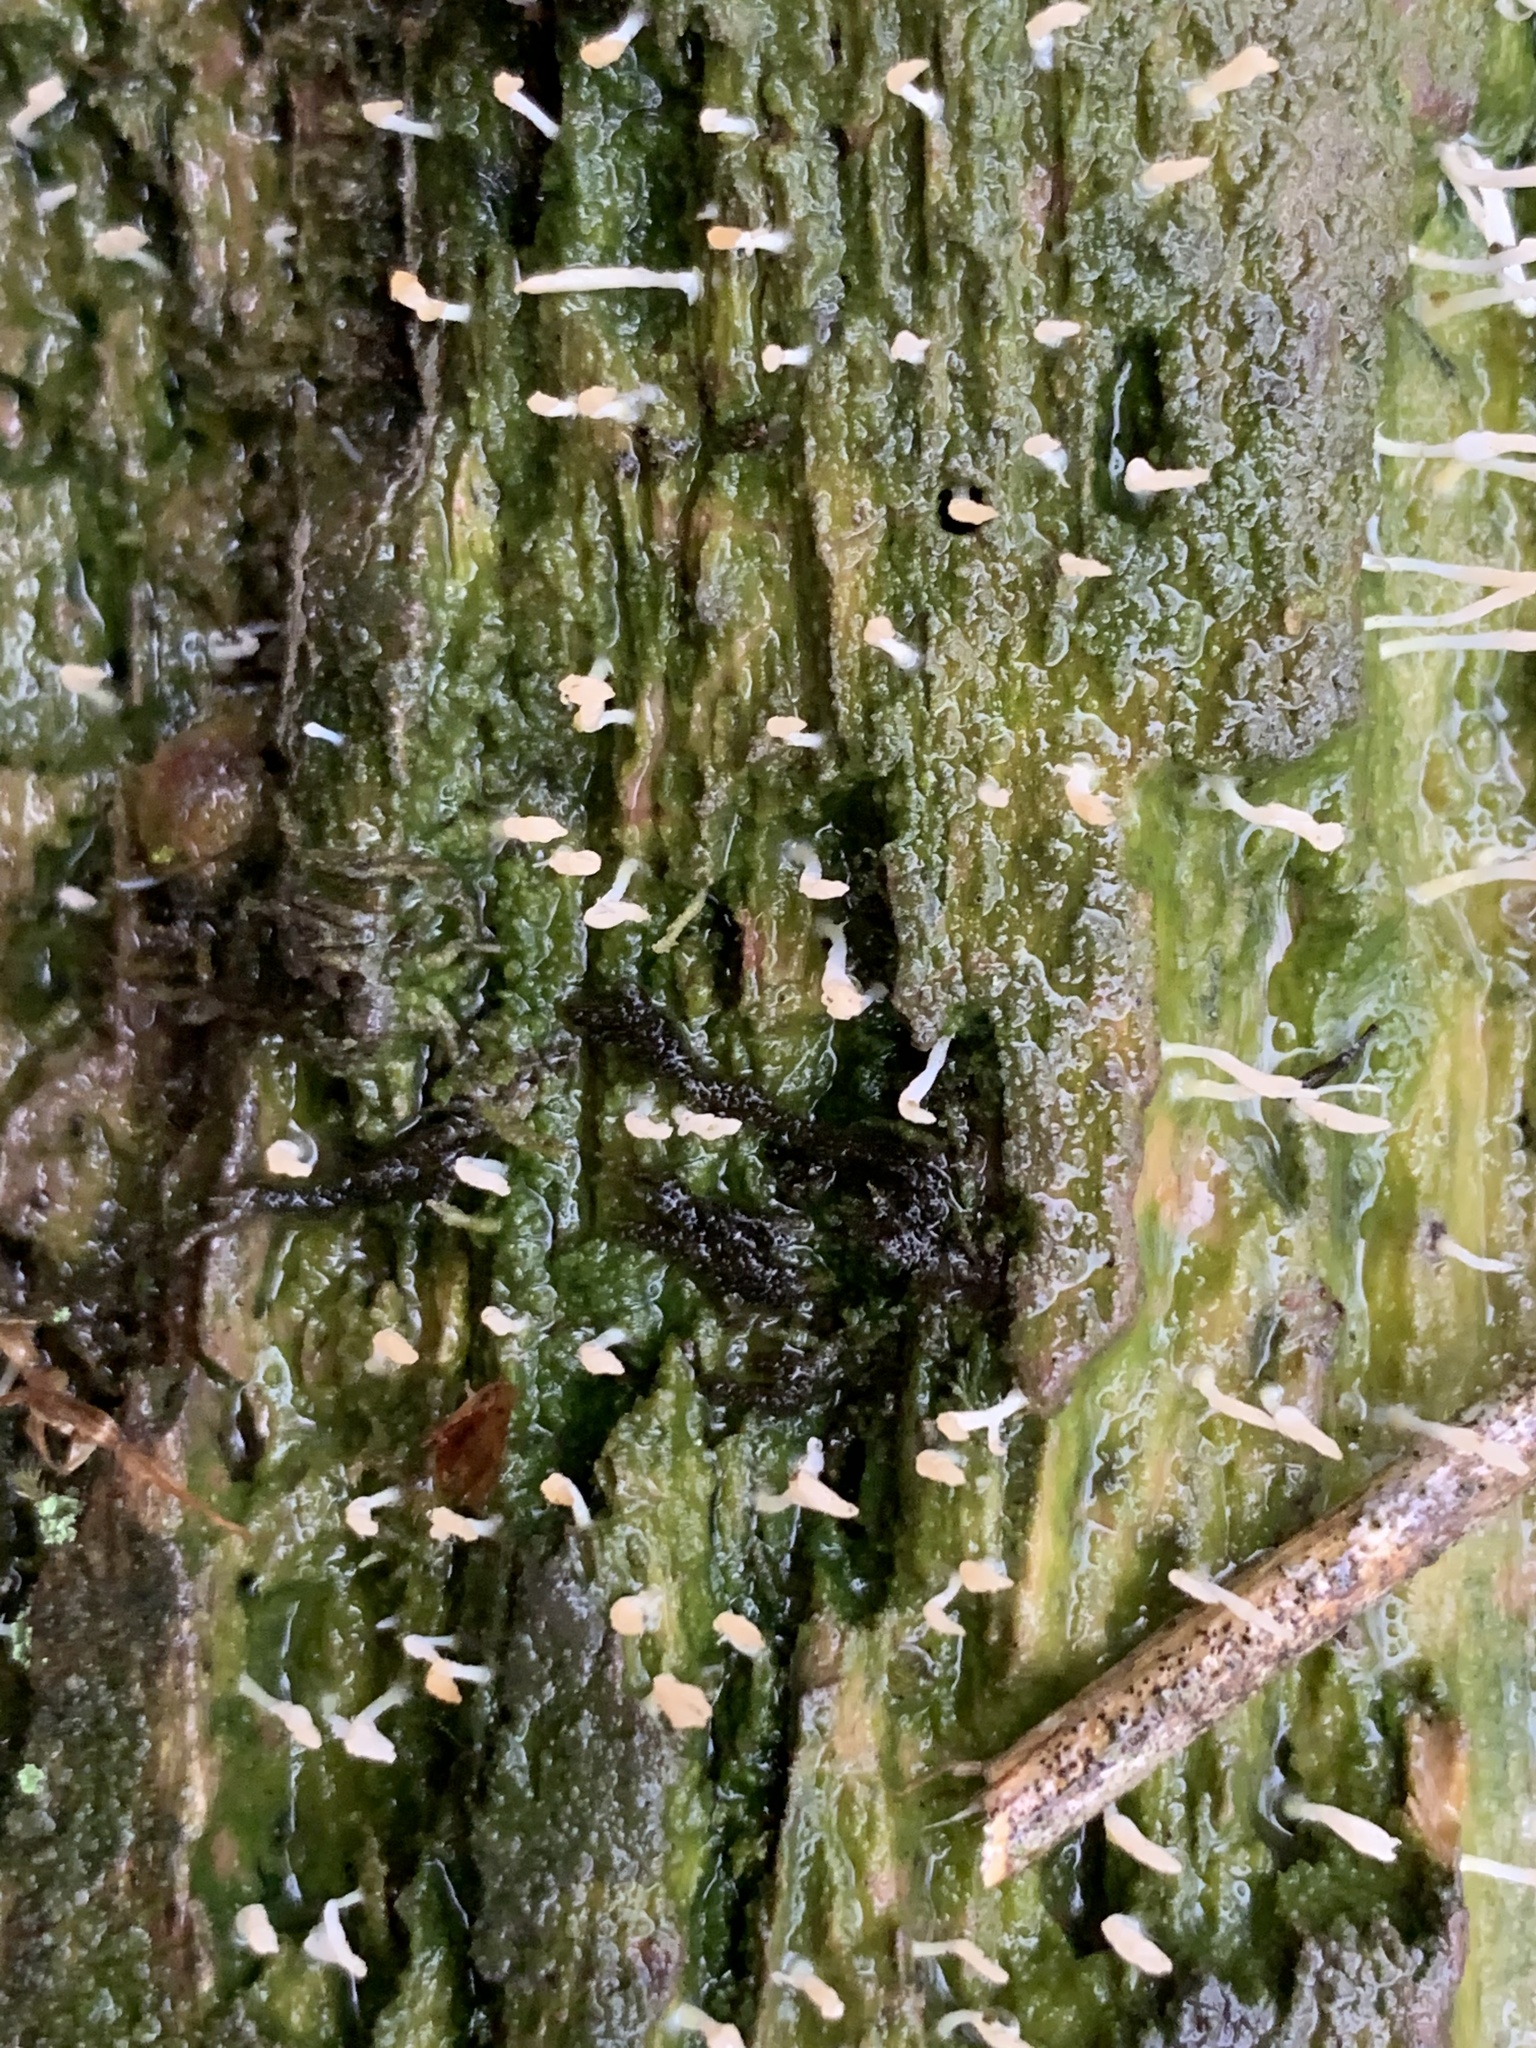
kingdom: Fungi
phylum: Basidiomycota
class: Agaricomycetes
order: Cantharellales
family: Hydnaceae
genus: Multiclavula
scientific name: Multiclavula mucida
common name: White green-algae coral
